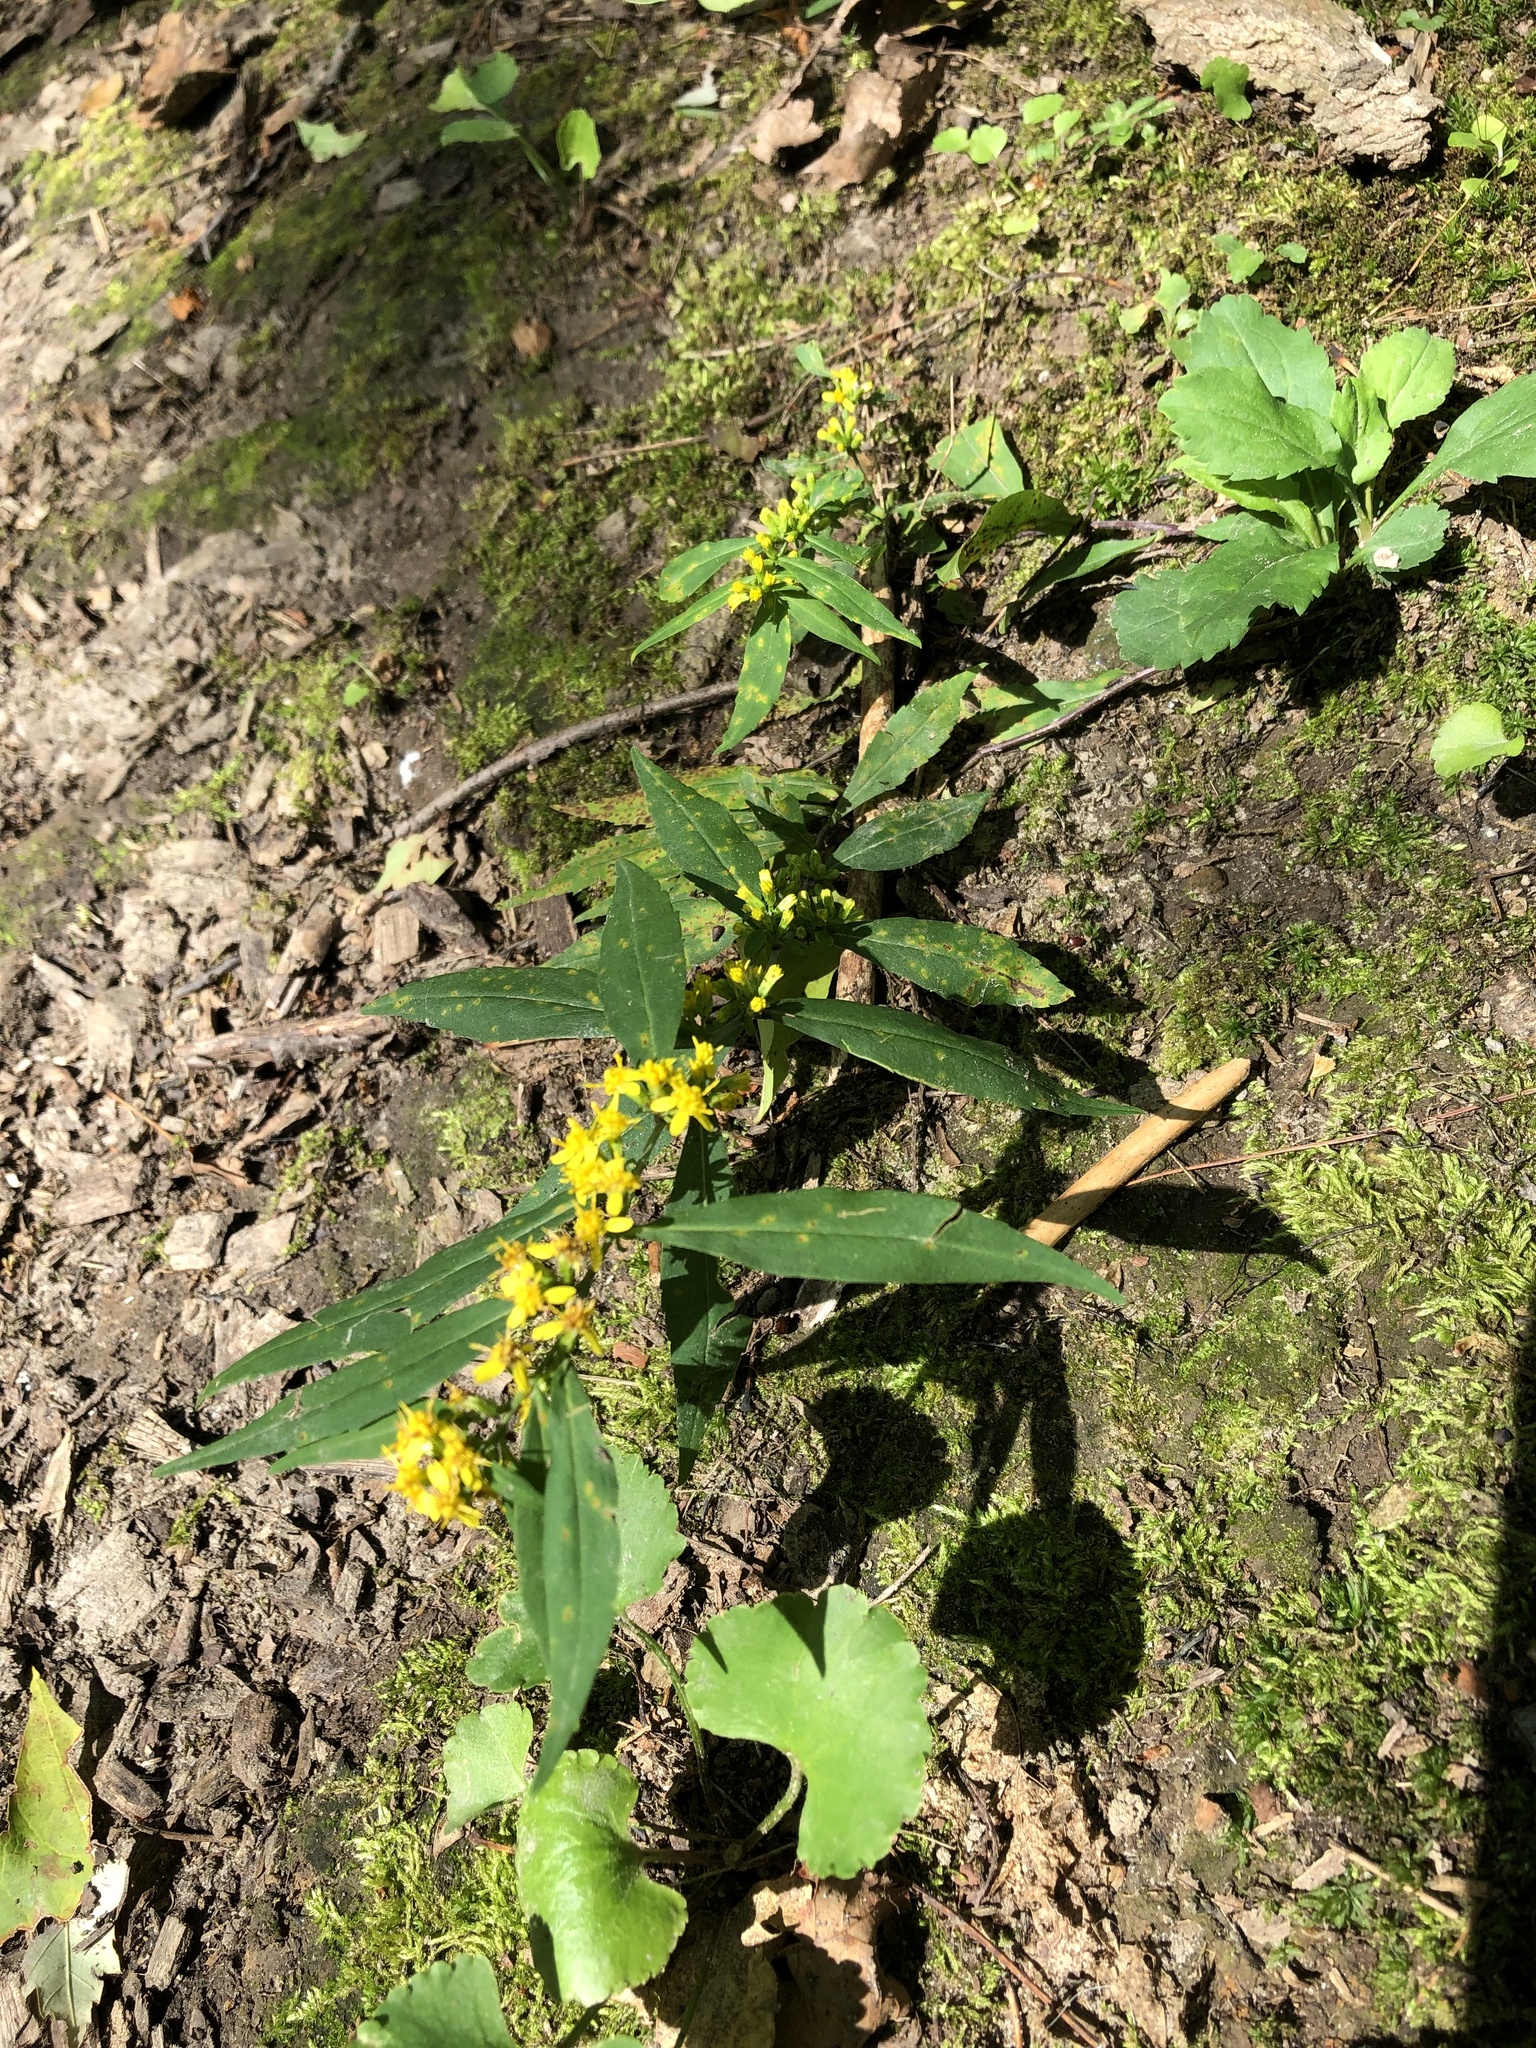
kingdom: Plantae
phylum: Tracheophyta
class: Magnoliopsida
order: Asterales
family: Asteraceae
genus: Solidago
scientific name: Solidago caesia
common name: Woodland goldenrod
